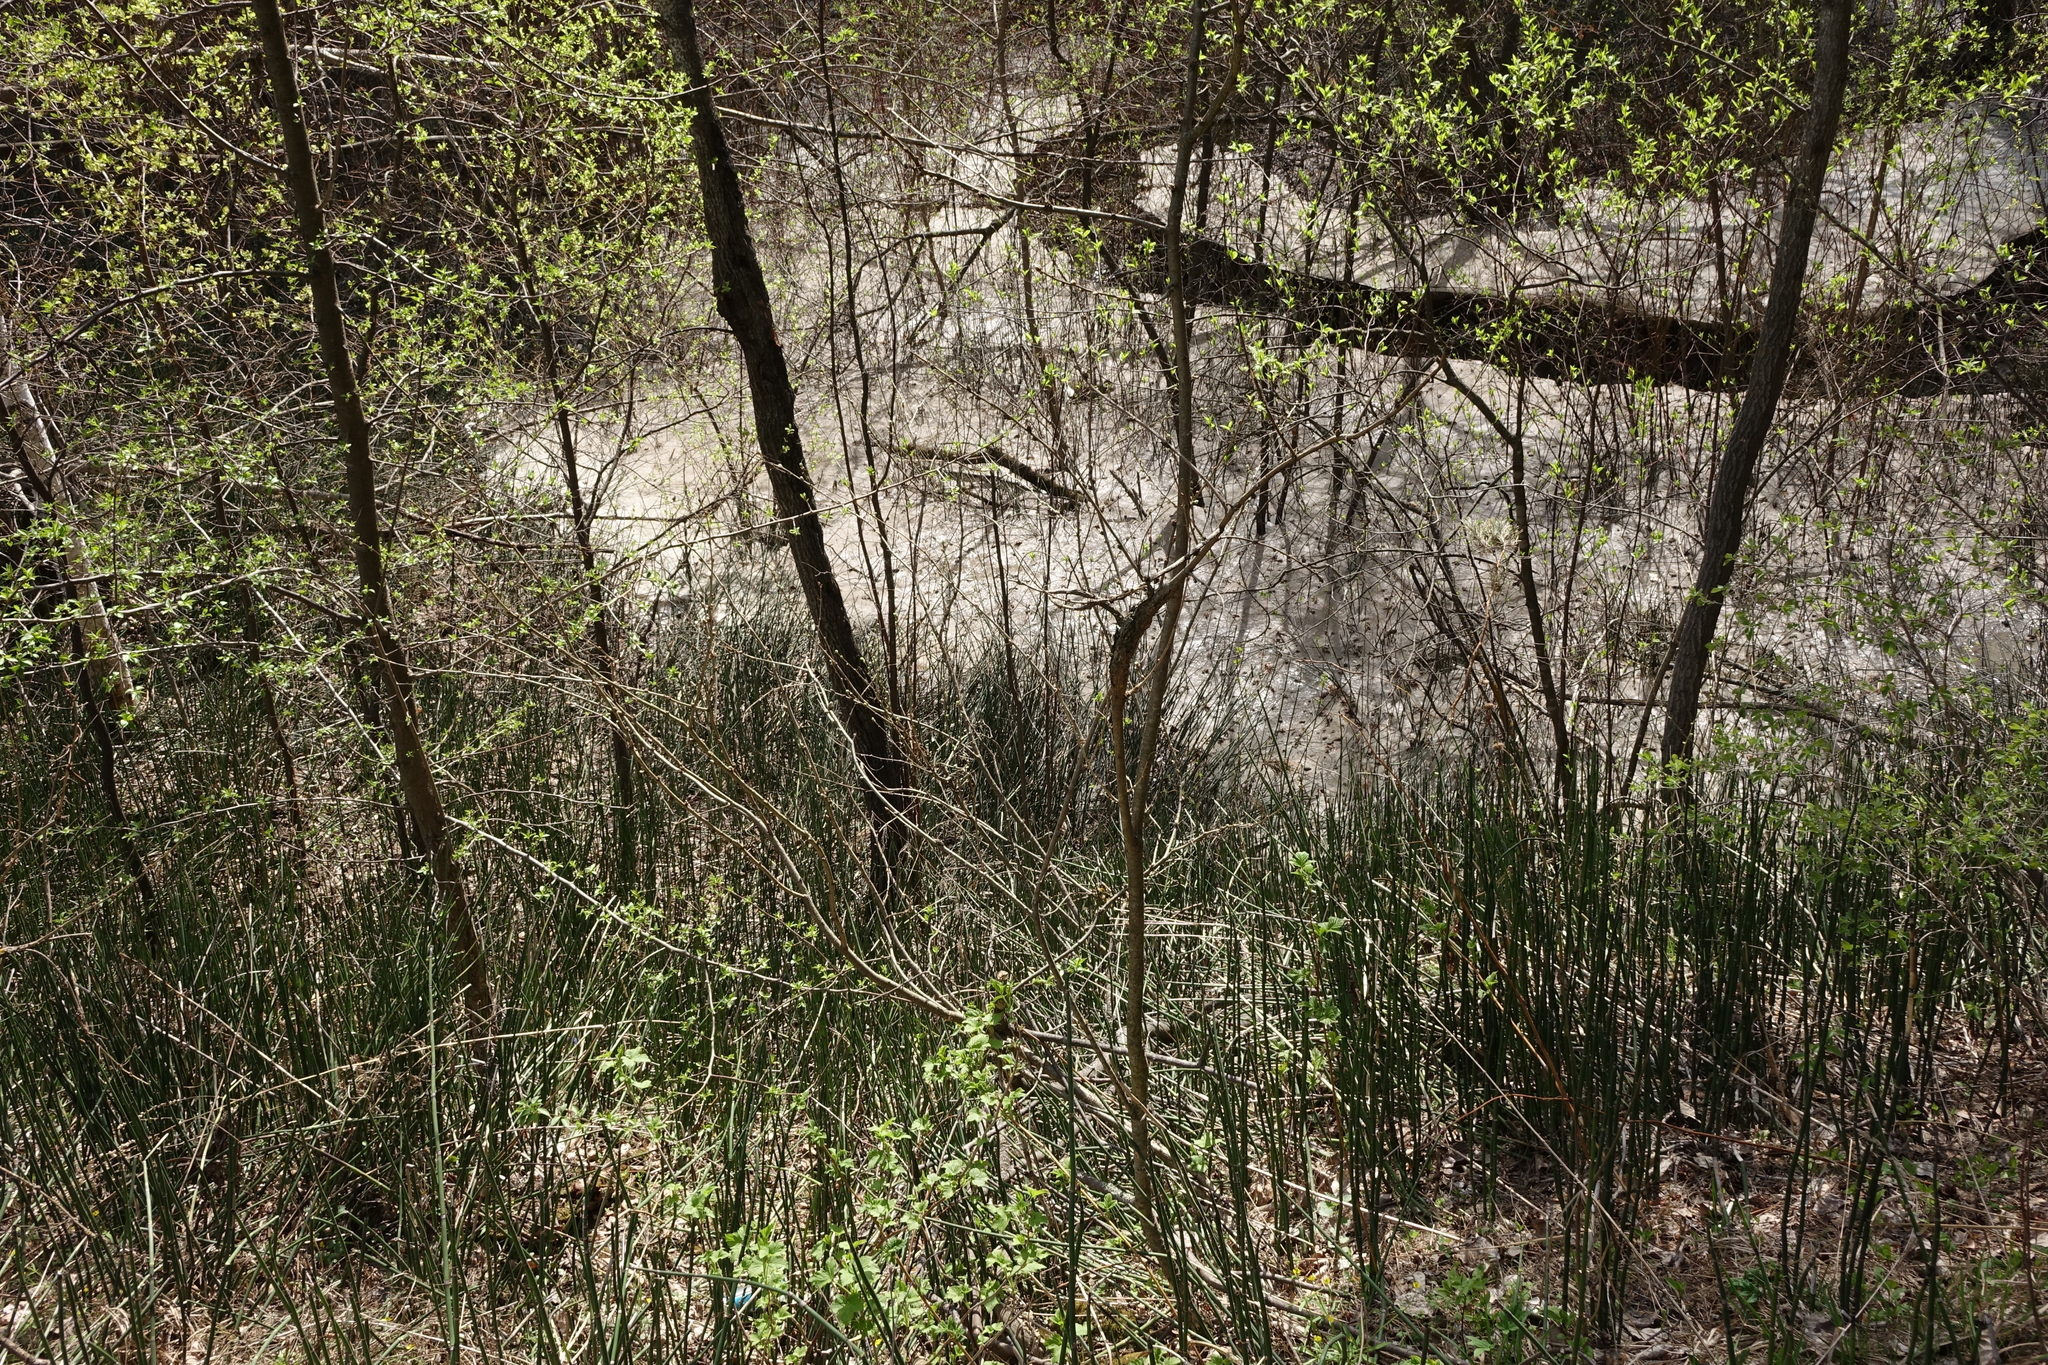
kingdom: Plantae
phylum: Tracheophyta
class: Polypodiopsida
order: Equisetales
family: Equisetaceae
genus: Equisetum
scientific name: Equisetum hyemale
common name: Rough horsetail
